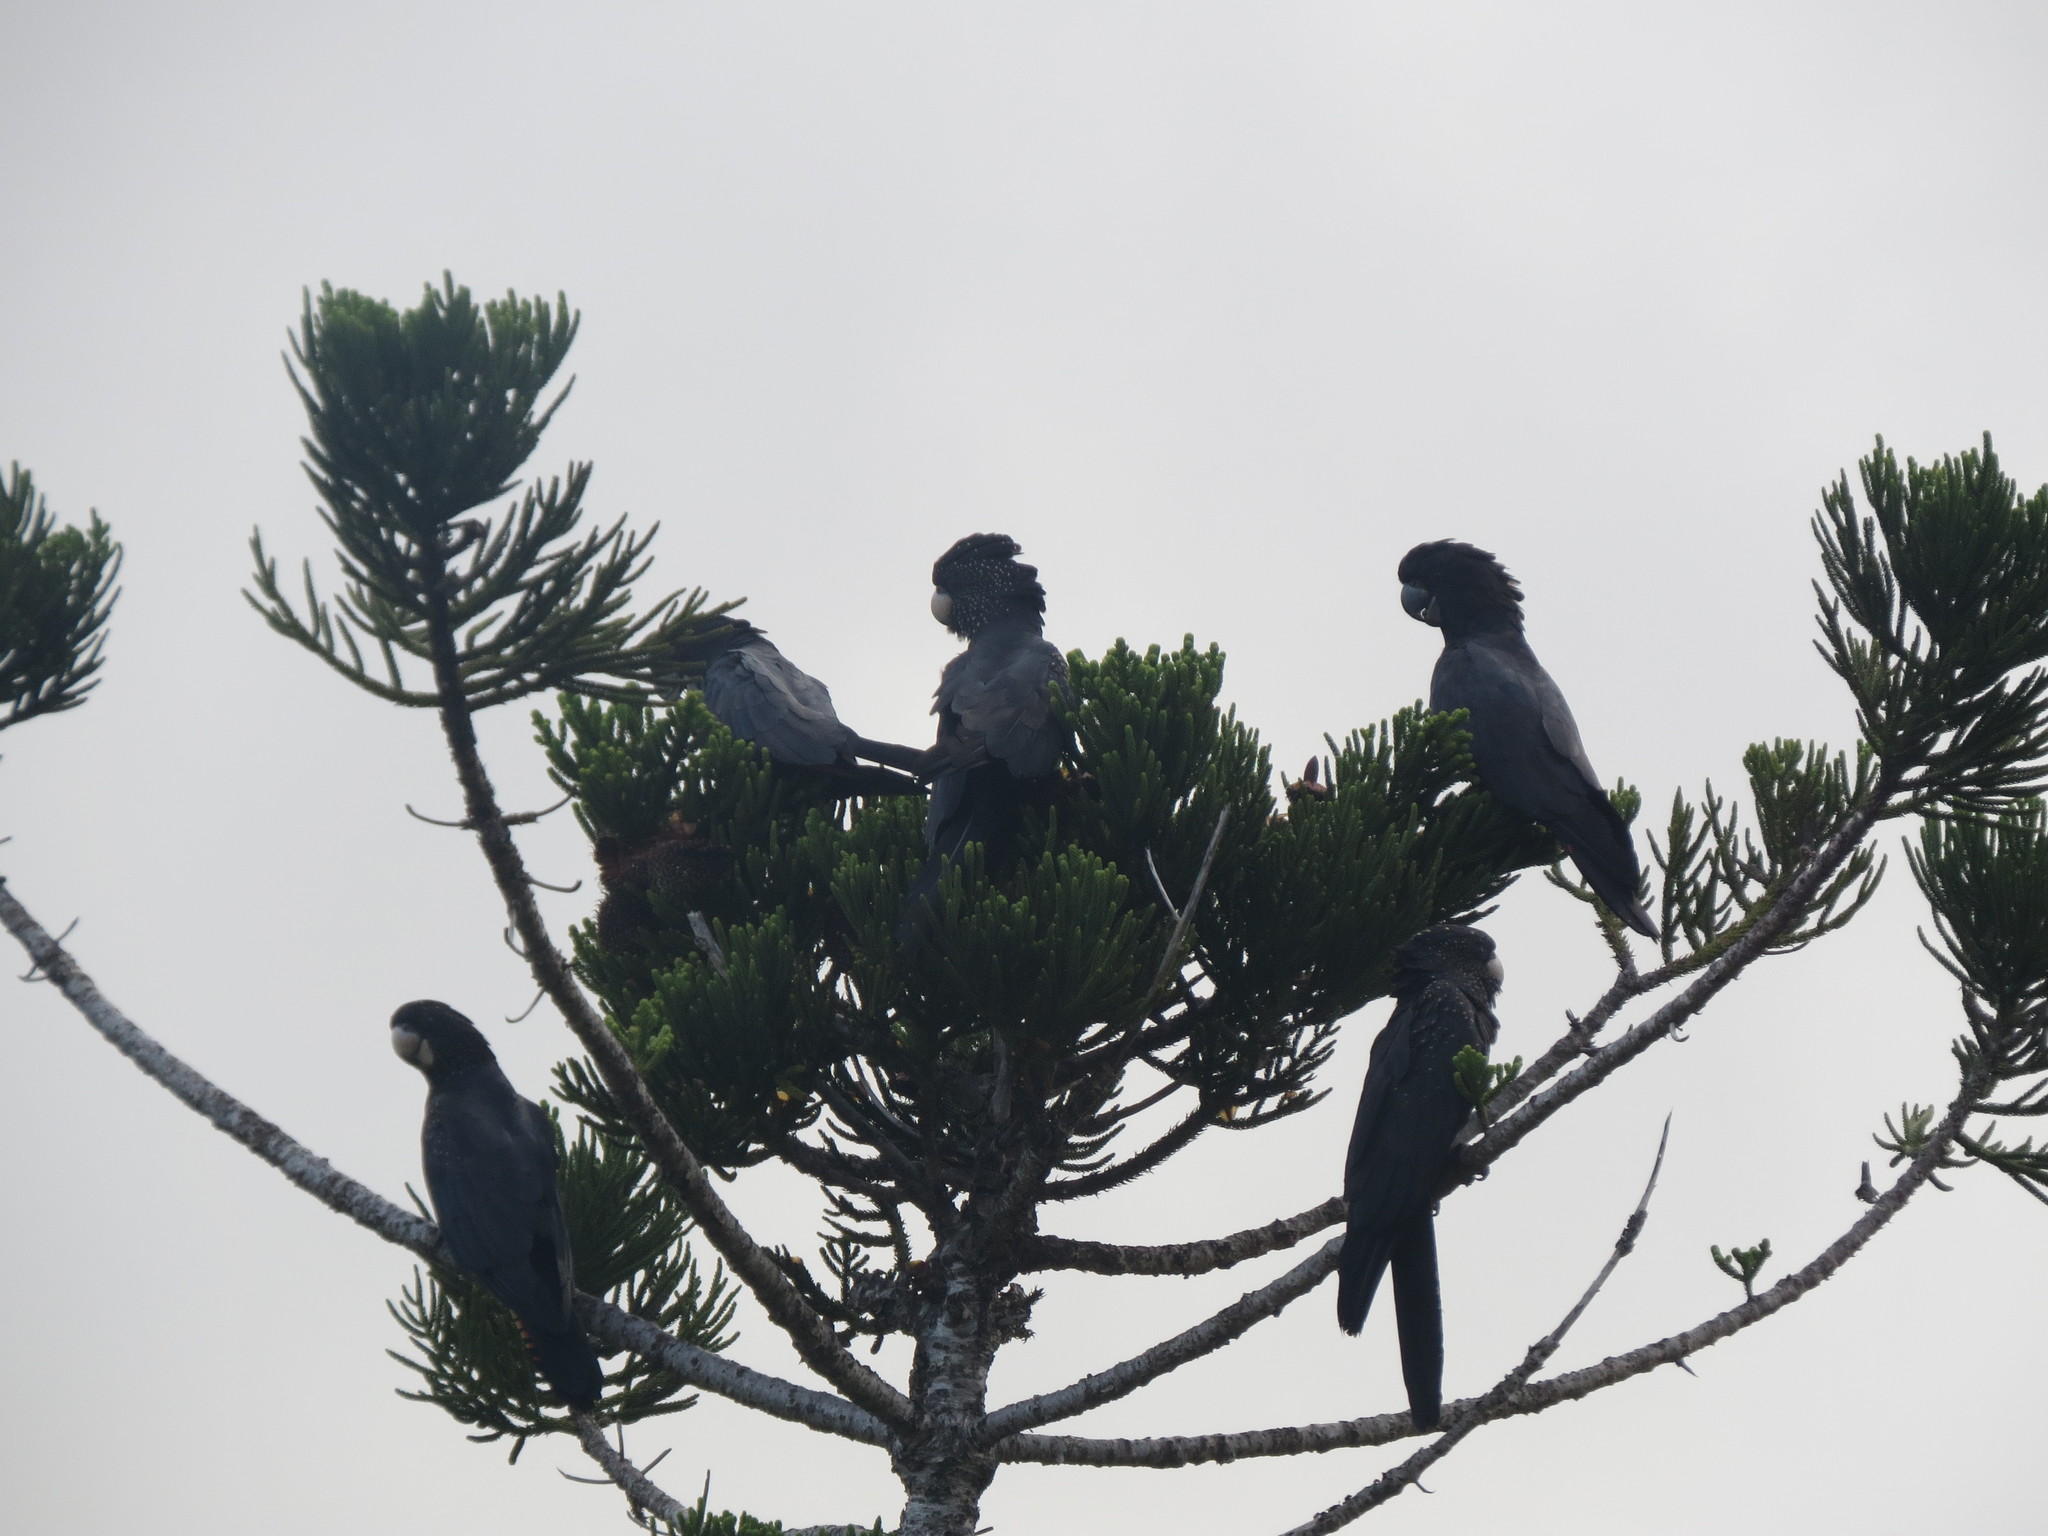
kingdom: Animalia
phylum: Chordata
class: Aves
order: Psittaciformes
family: Psittacidae
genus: Calyptorhynchus
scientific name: Calyptorhynchus banksii
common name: Red-tailed black cockatoo
